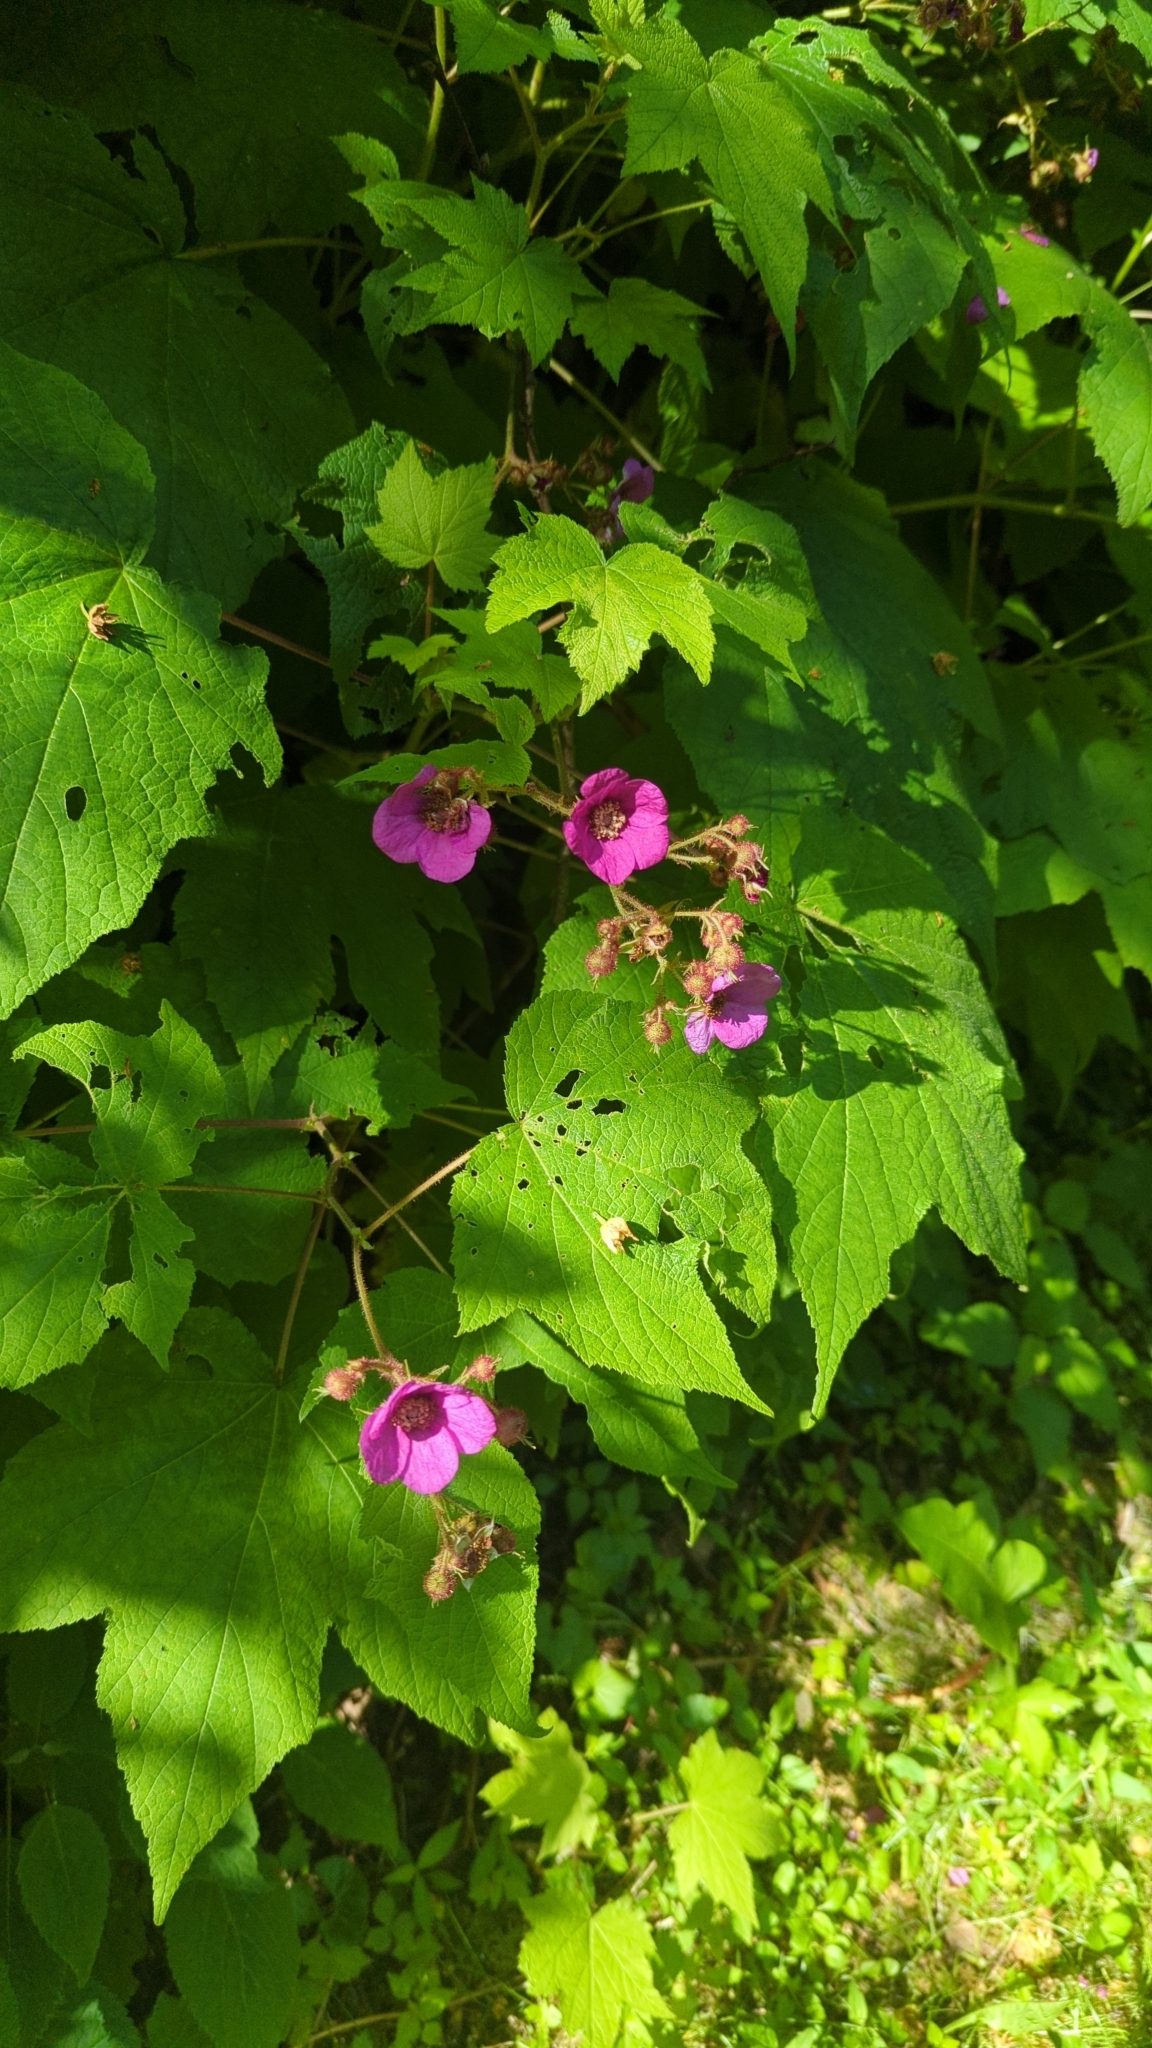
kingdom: Plantae
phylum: Tracheophyta
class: Magnoliopsida
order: Rosales
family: Rosaceae
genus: Rubus
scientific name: Rubus odoratus
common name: Purple-flowered raspberry
